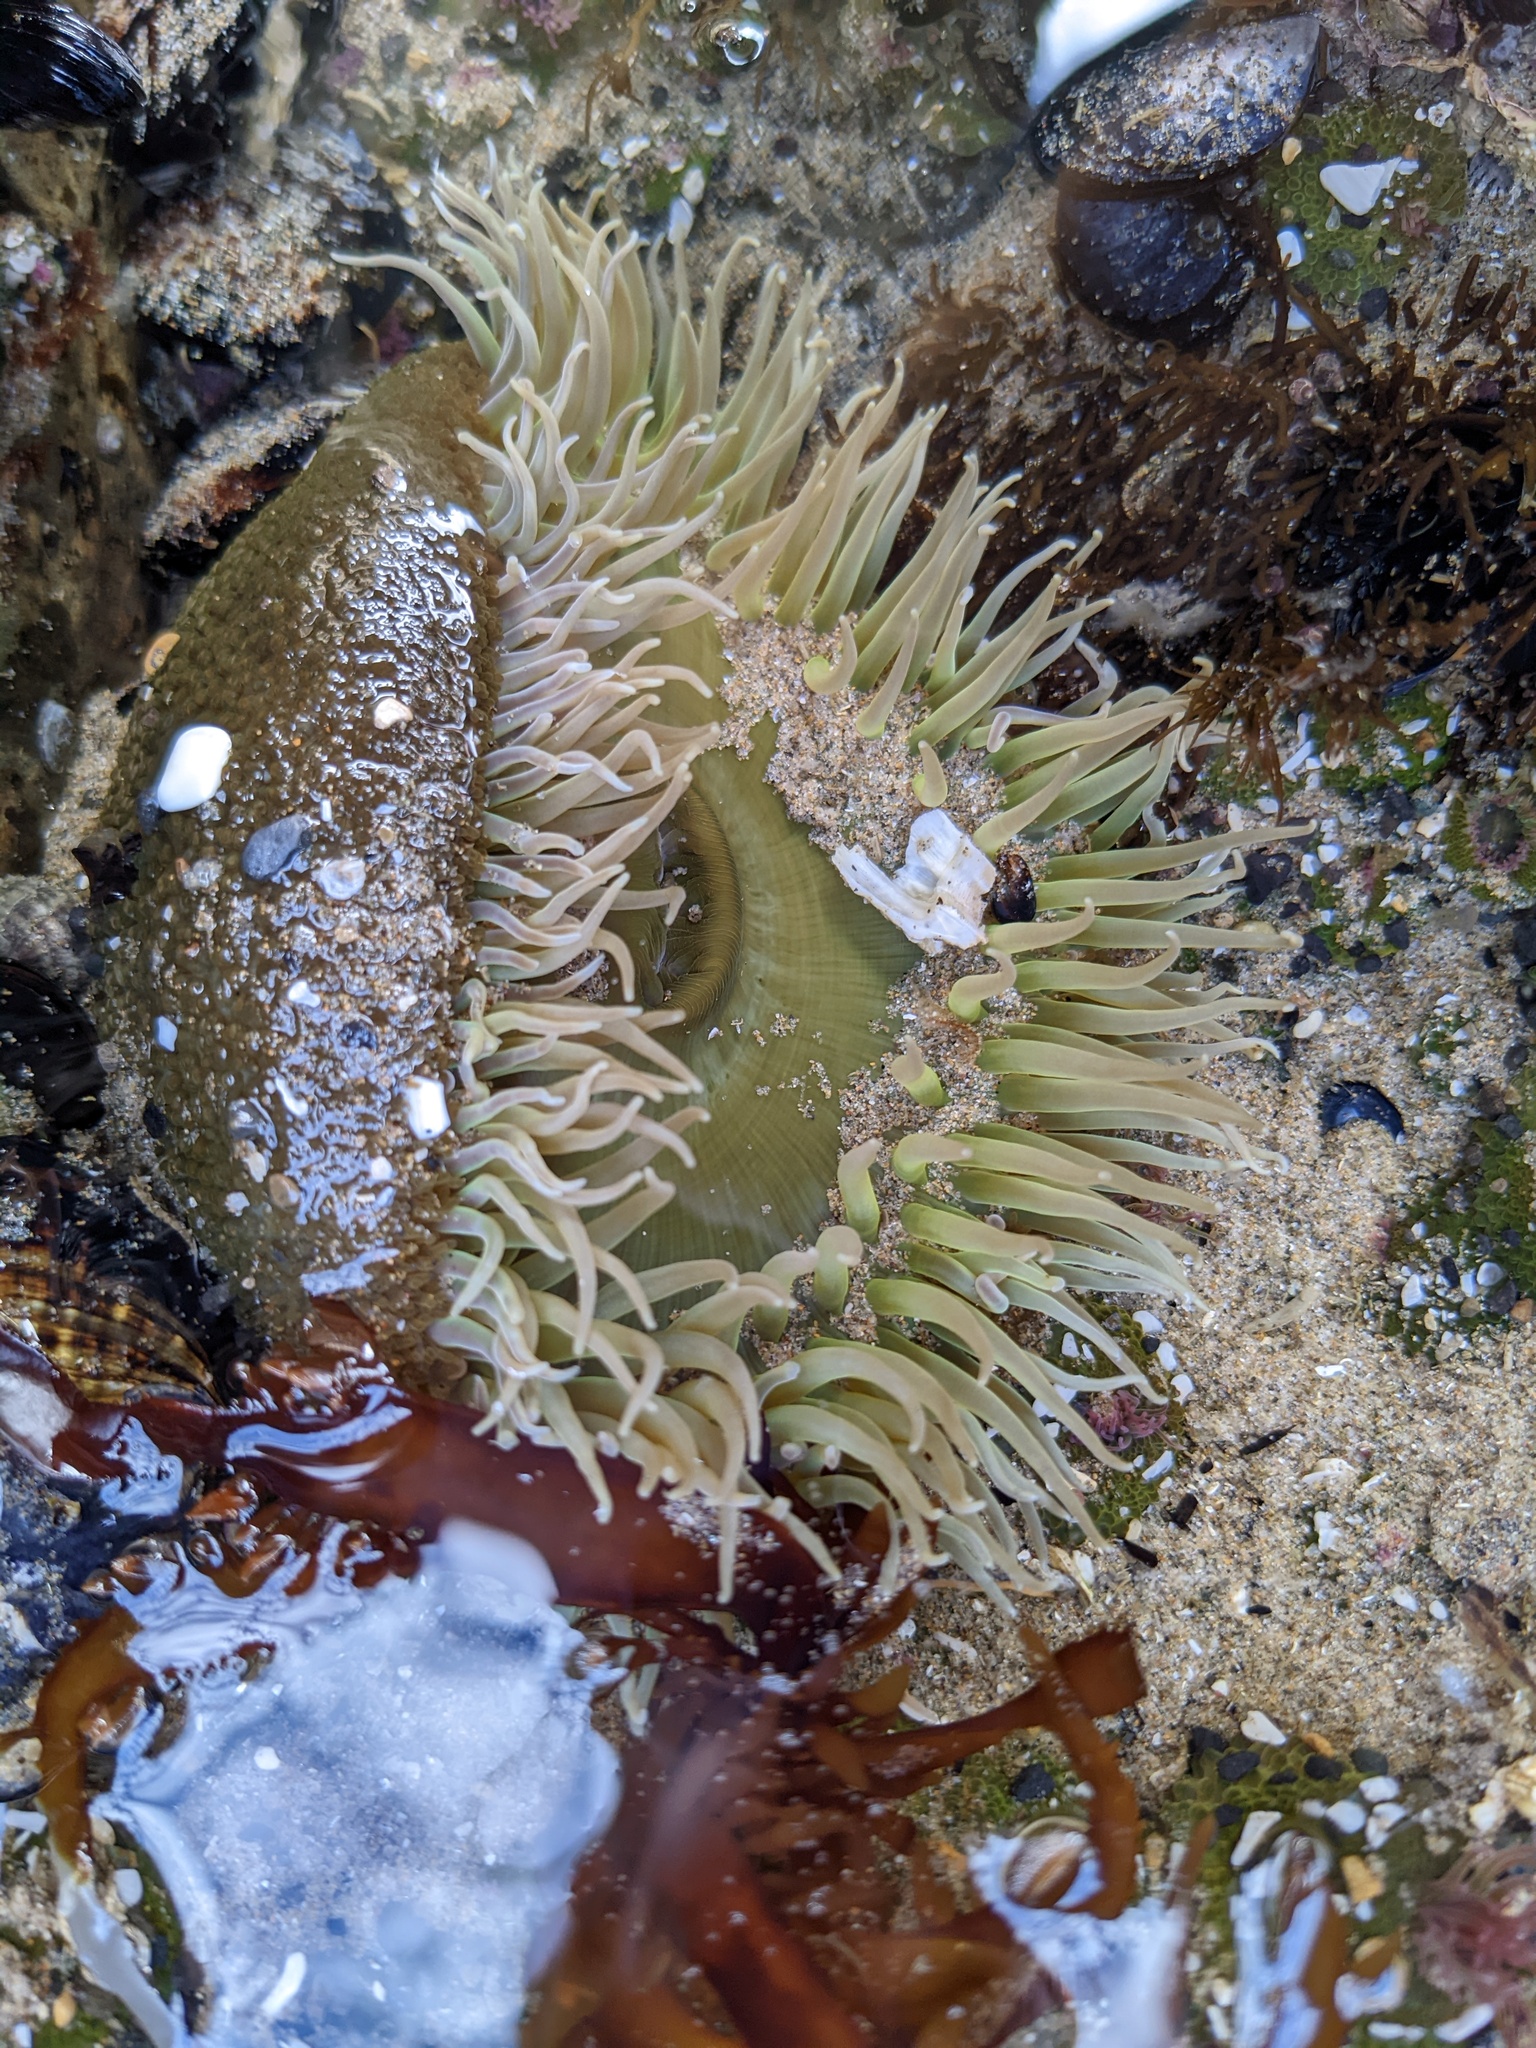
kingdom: Animalia
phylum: Cnidaria
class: Anthozoa
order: Actiniaria
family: Actiniidae
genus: Anthopleura
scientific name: Anthopleura xanthogrammica
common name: Giant green anemone
